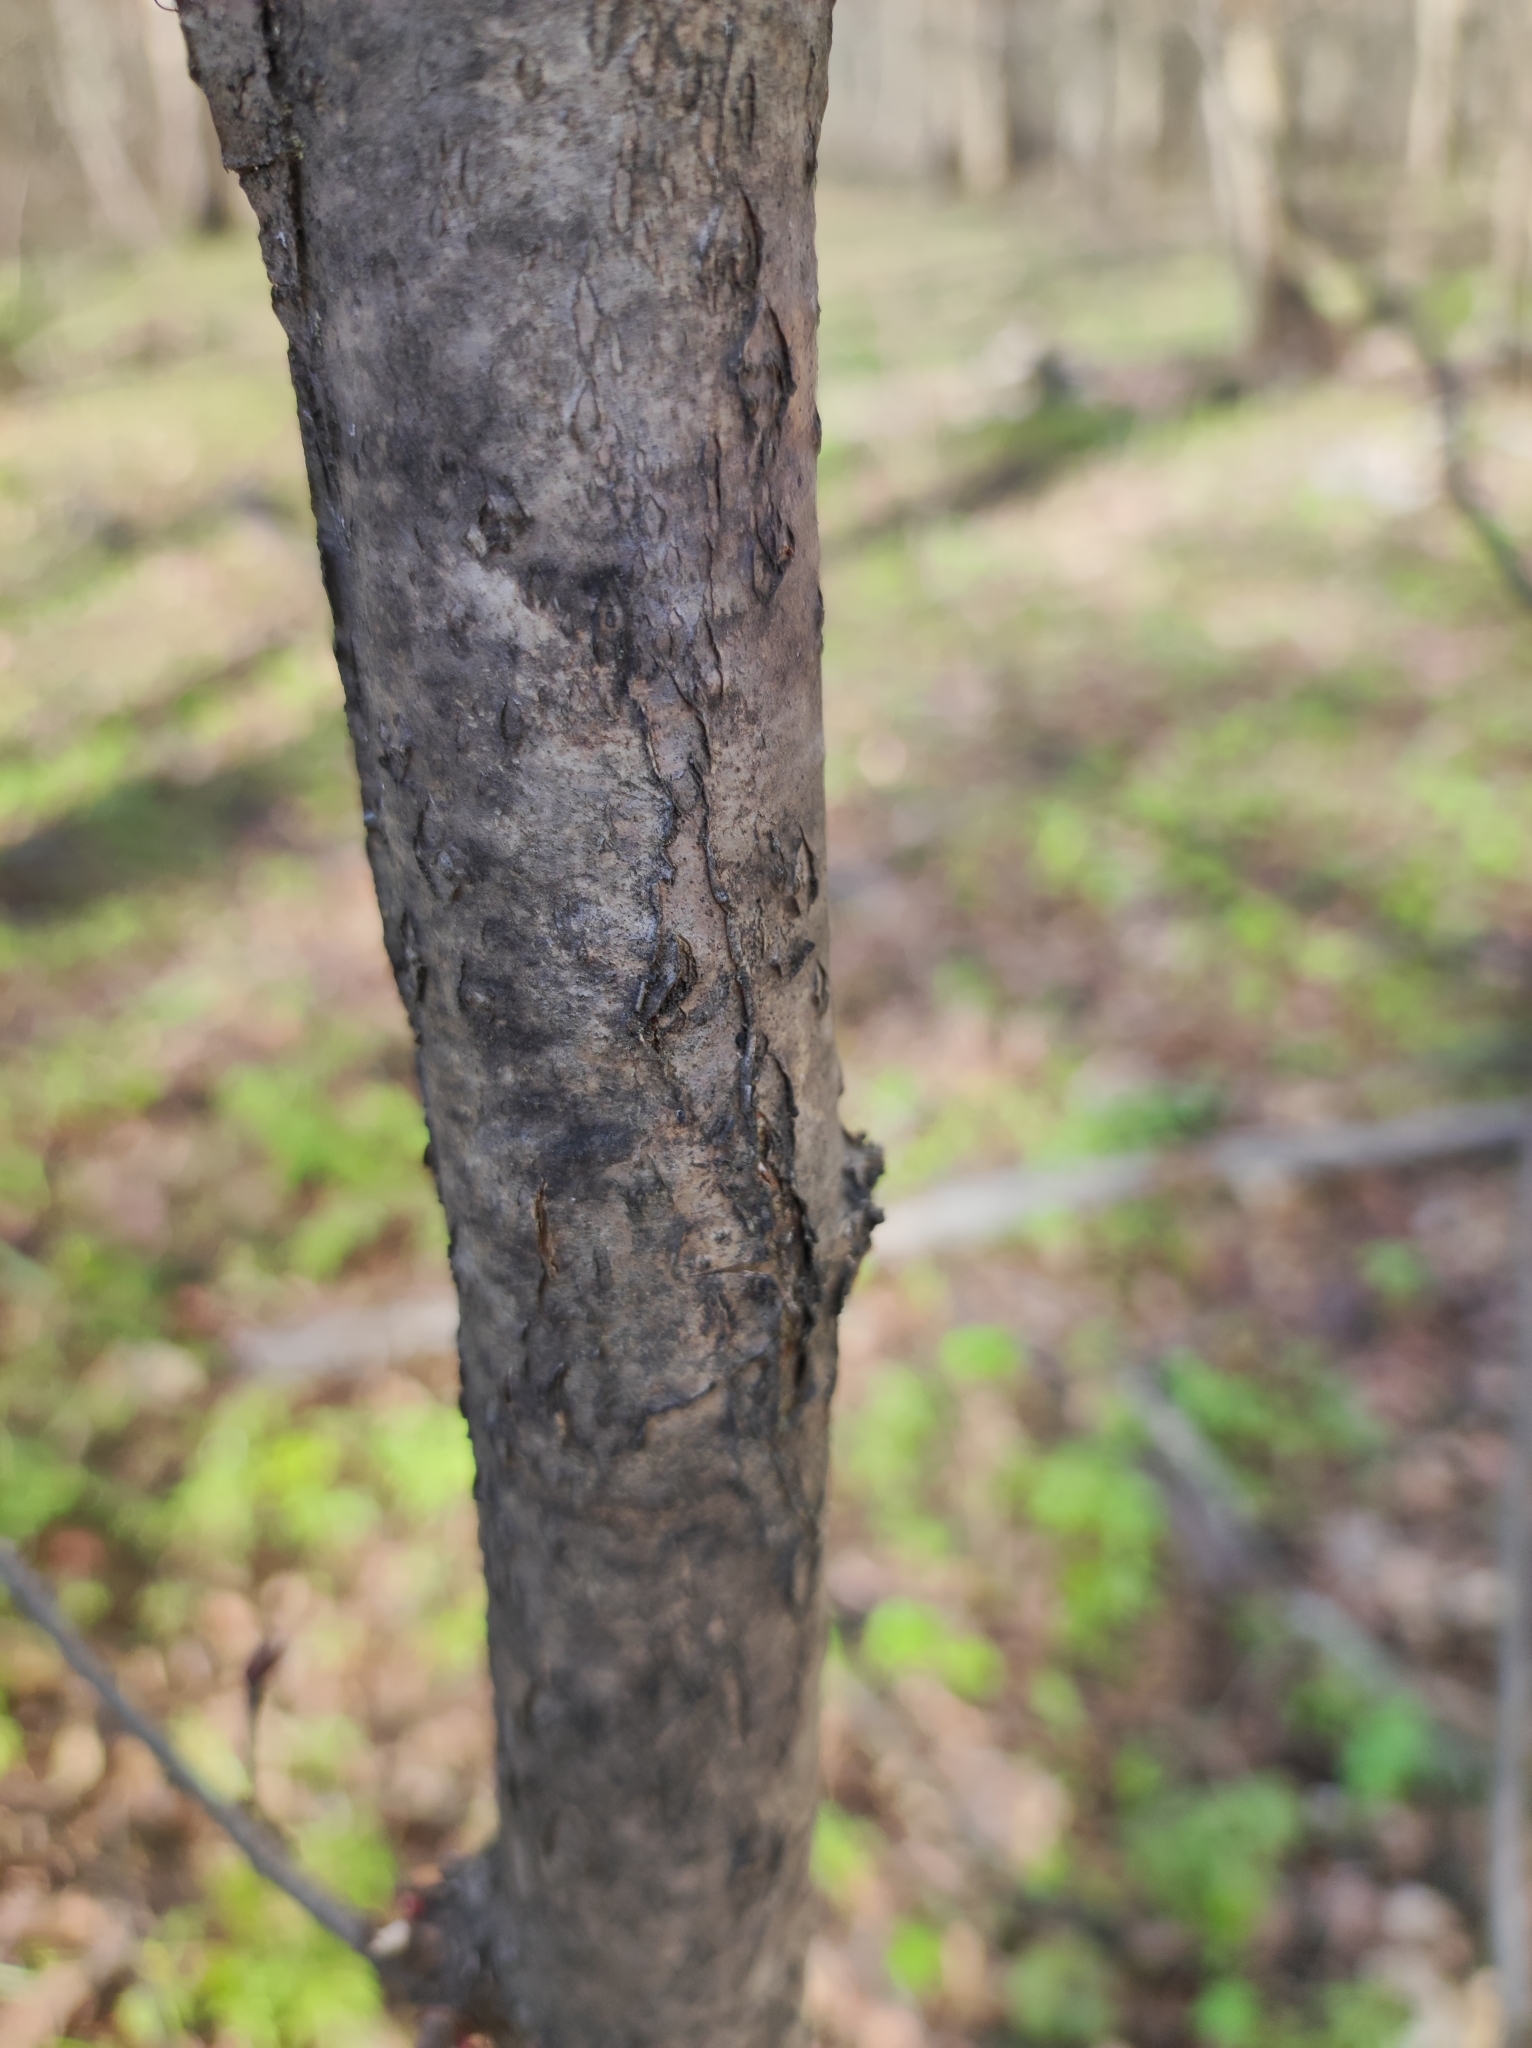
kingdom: Plantae
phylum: Tracheophyta
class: Magnoliopsida
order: Malvales
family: Malvaceae
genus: Tilia
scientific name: Tilia cordata
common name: Small-leaved lime
